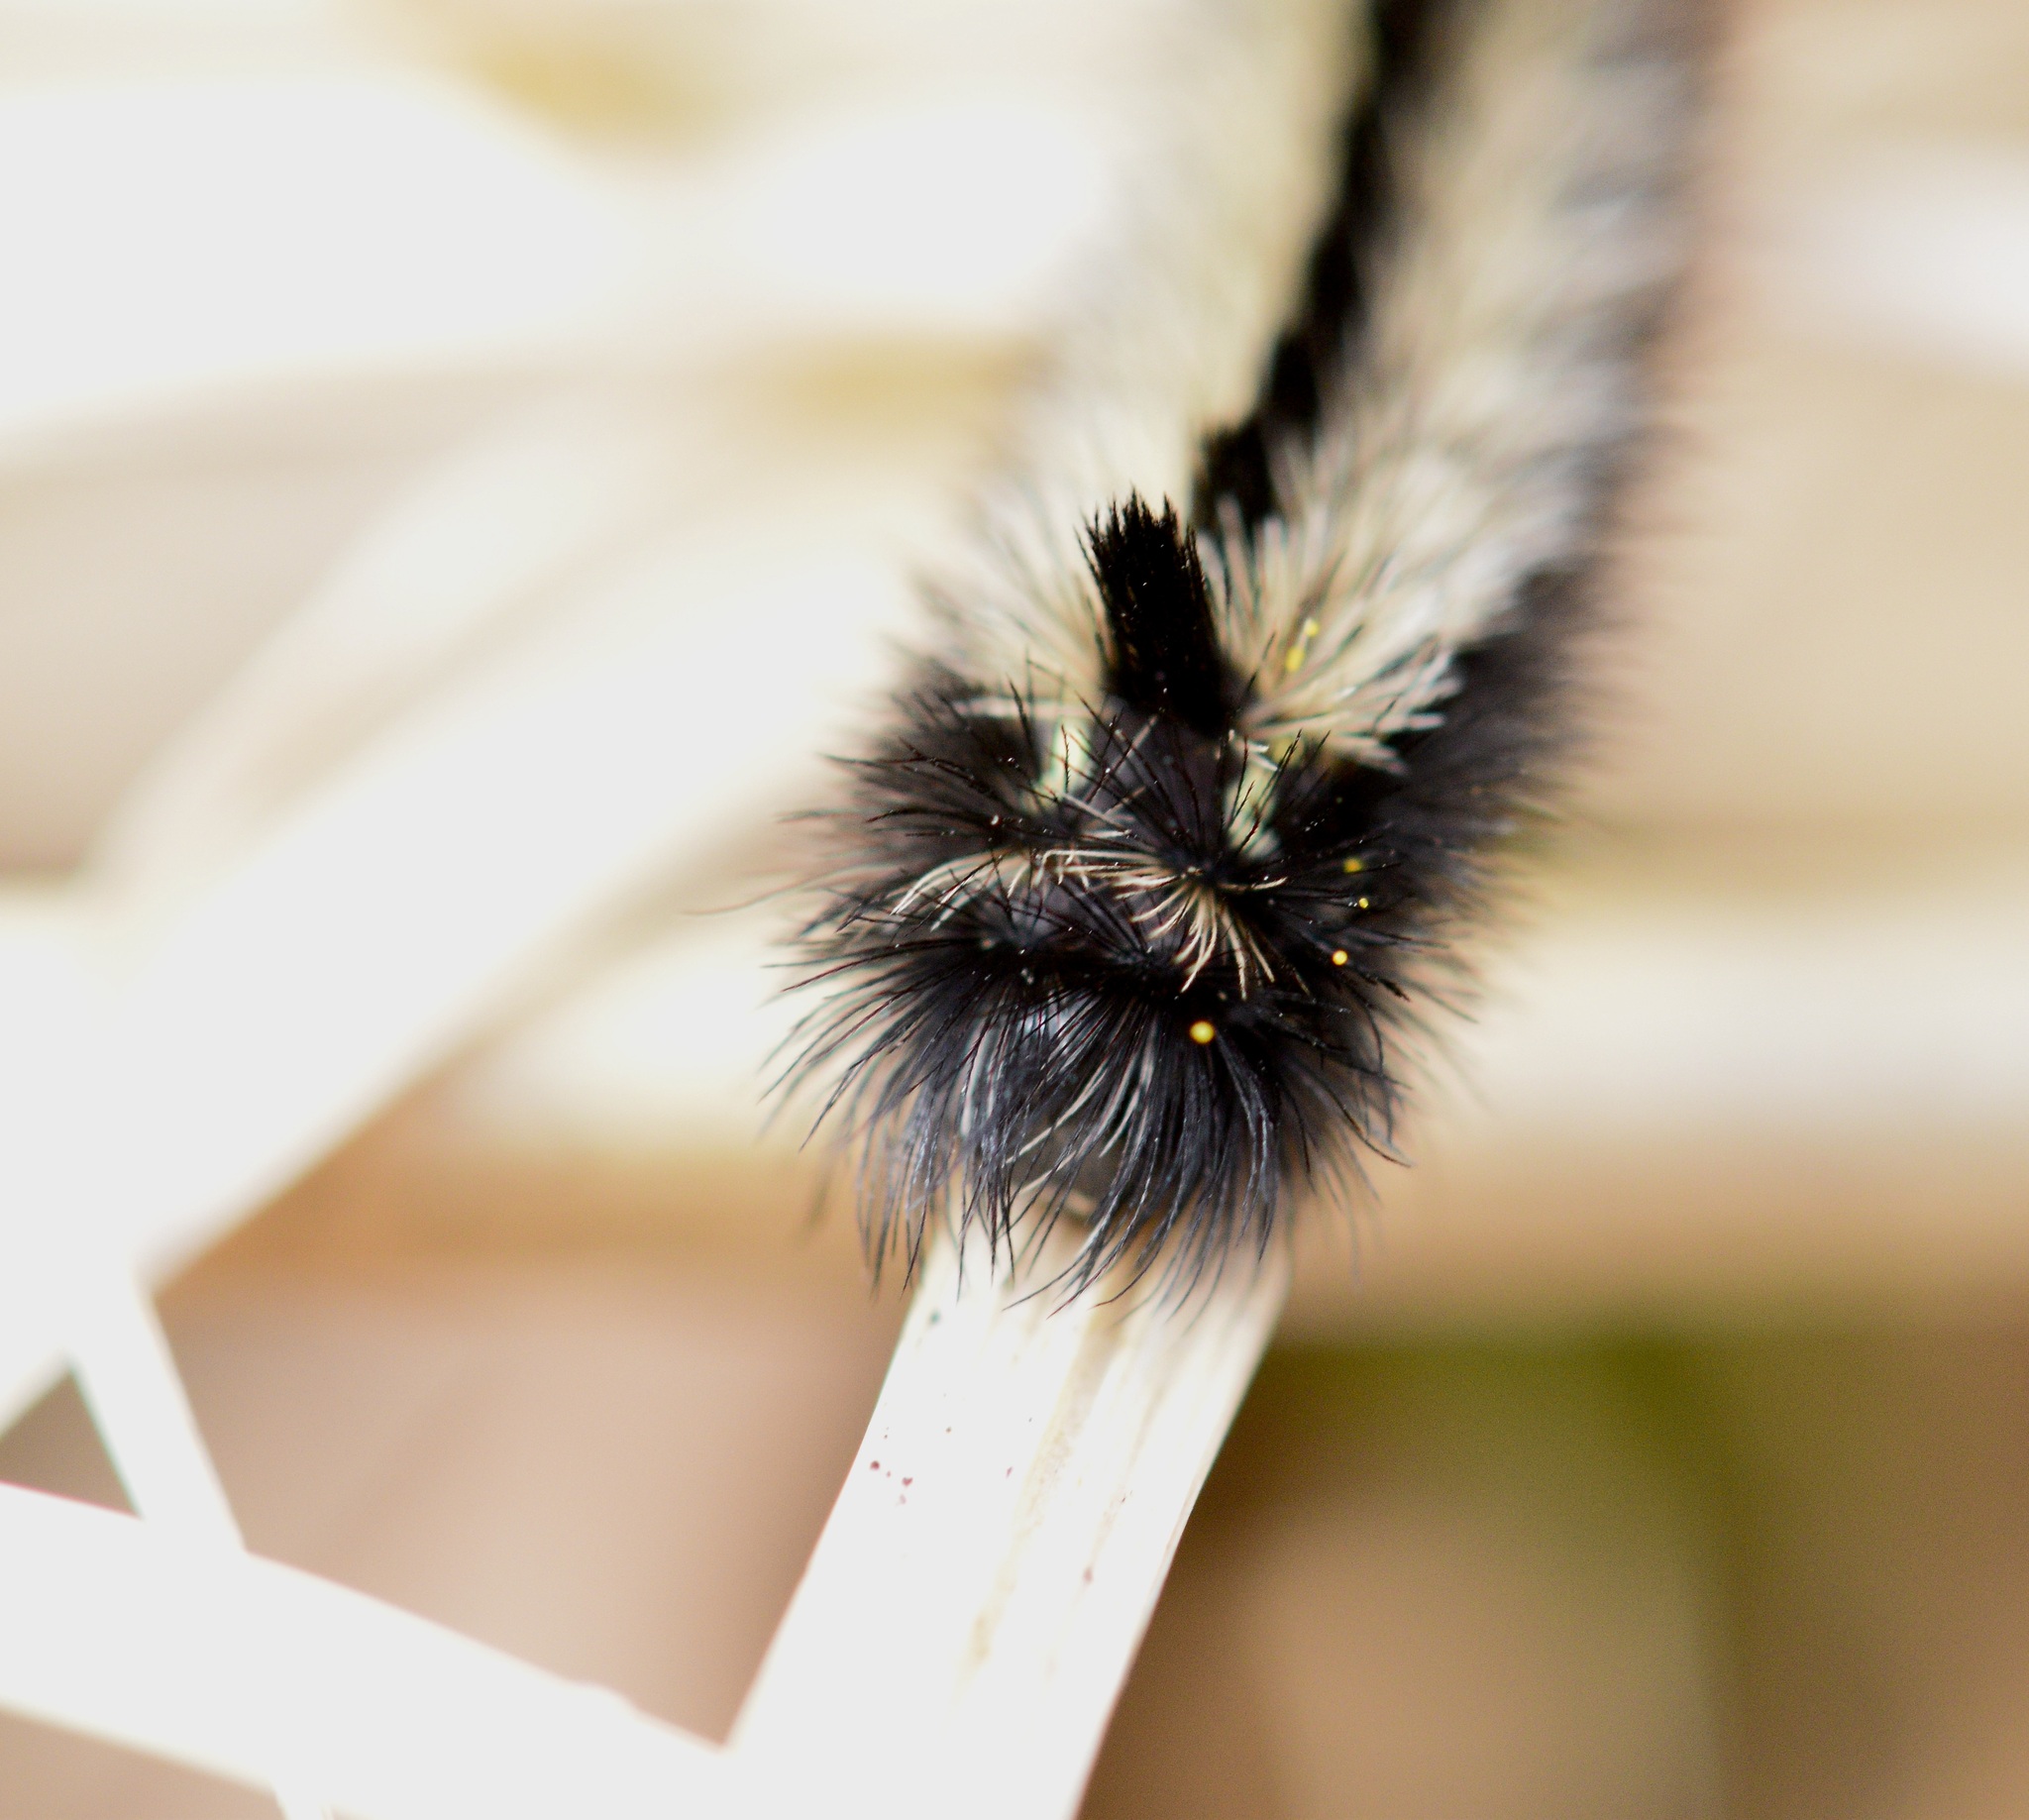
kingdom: Animalia
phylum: Arthropoda
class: Insecta
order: Lepidoptera
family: Erebidae
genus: Ctenucha
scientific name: Ctenucha virginica
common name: Virginia ctenucha moth
